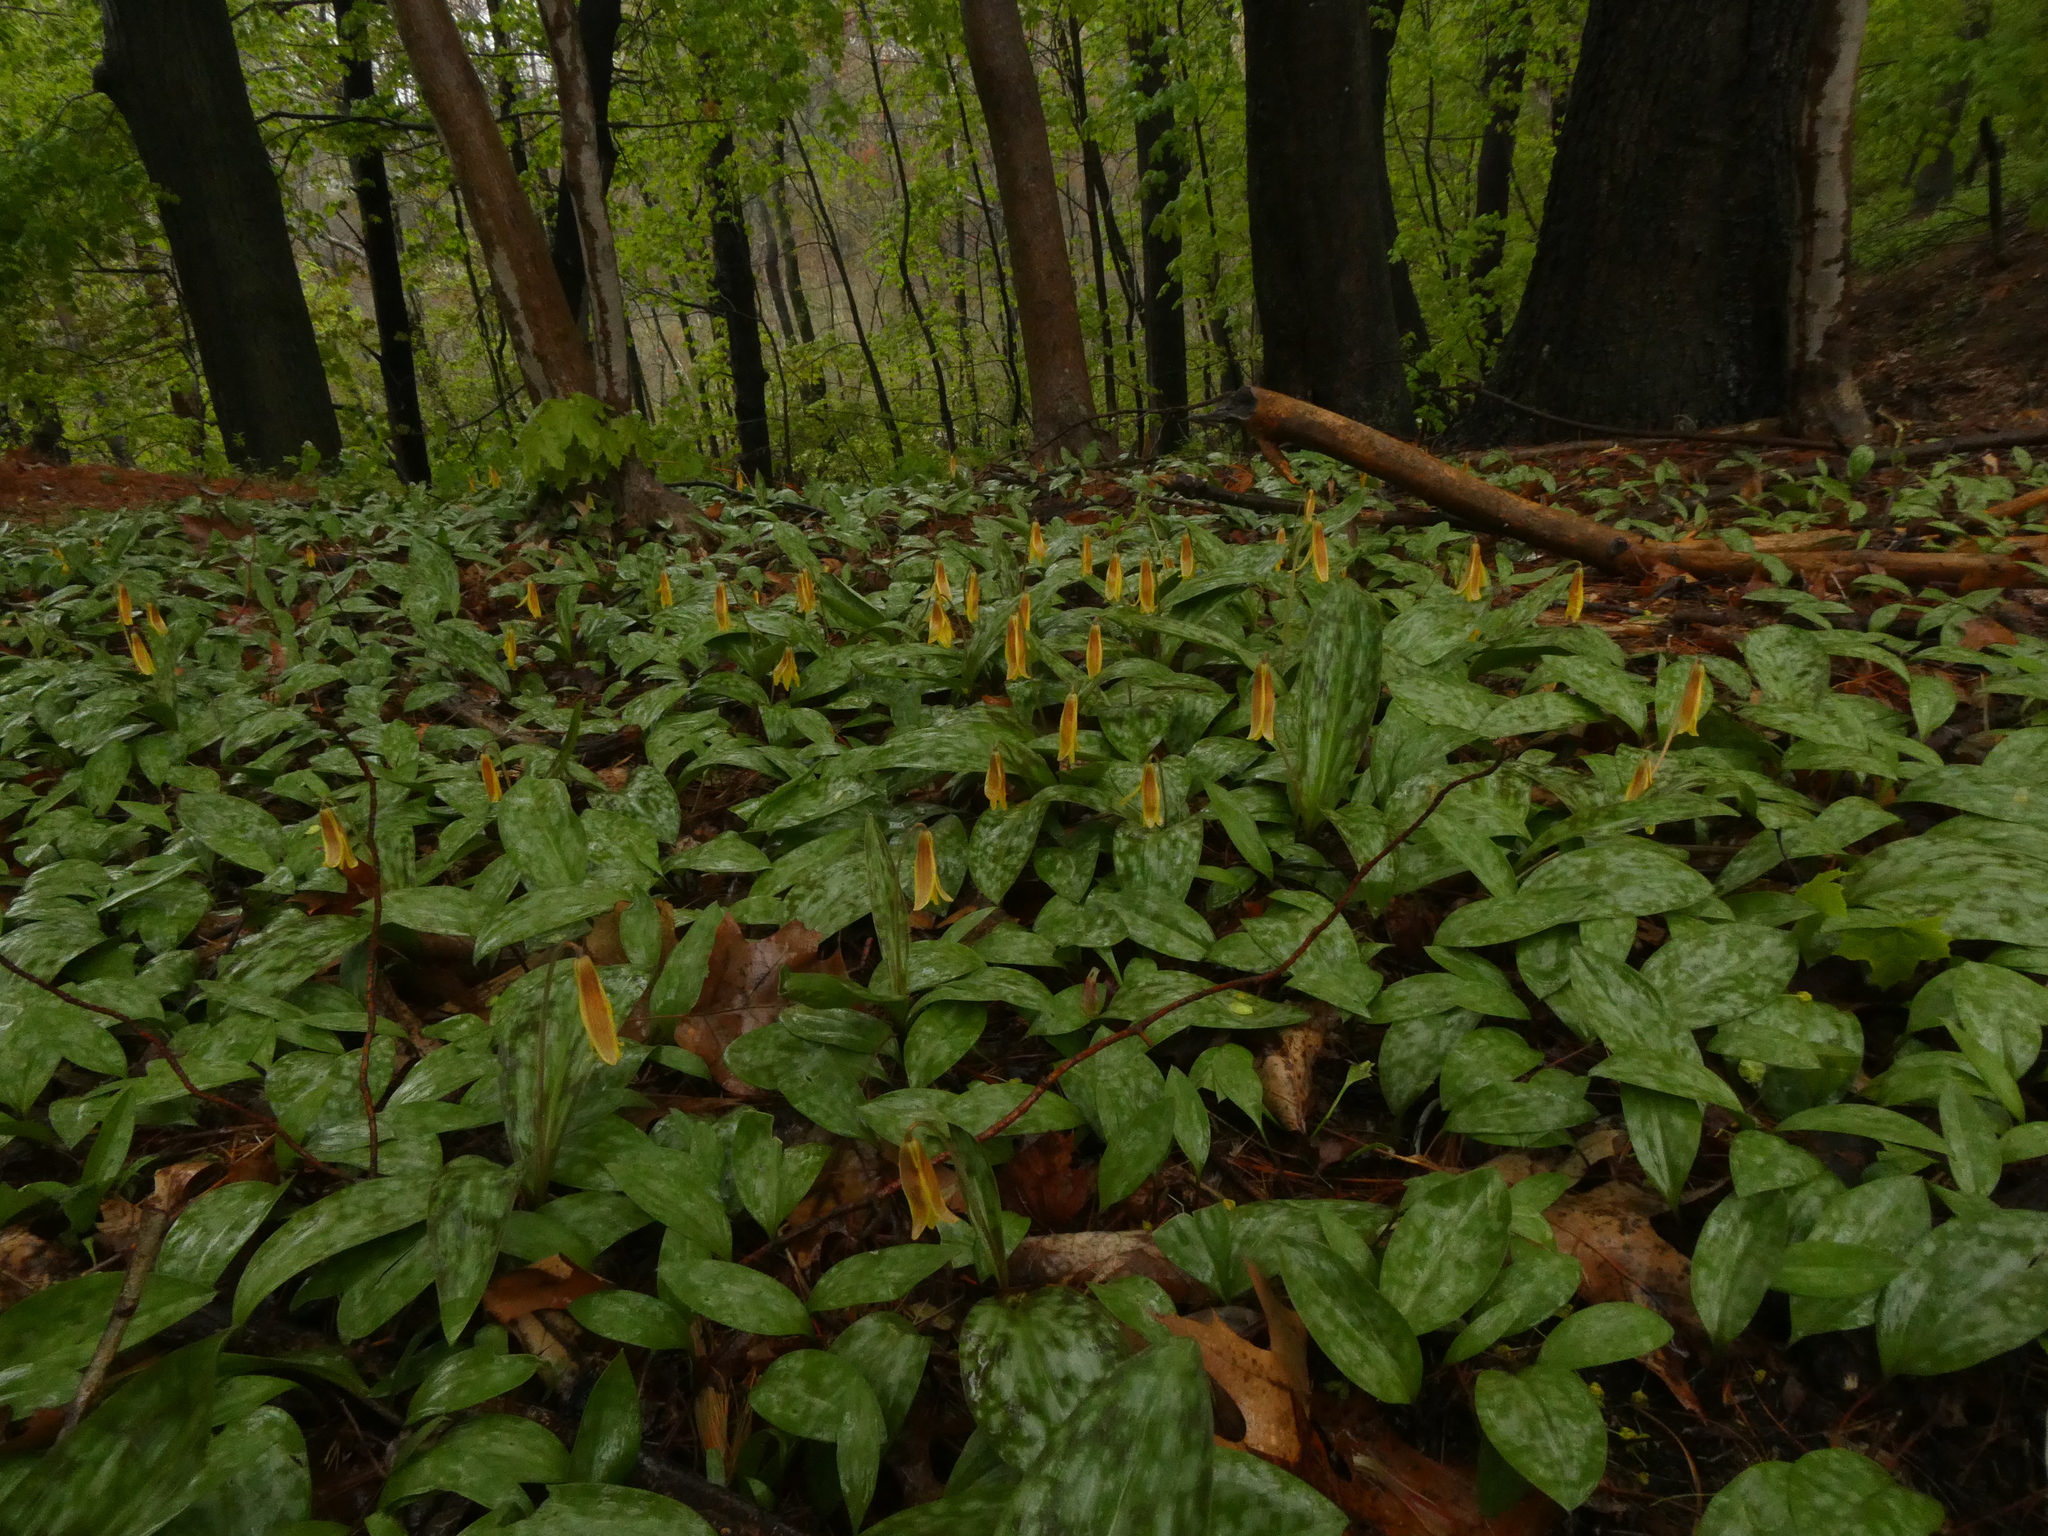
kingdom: Plantae
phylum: Tracheophyta
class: Liliopsida
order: Liliales
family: Liliaceae
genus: Erythronium
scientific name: Erythronium americanum
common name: Yellow adder's-tongue
